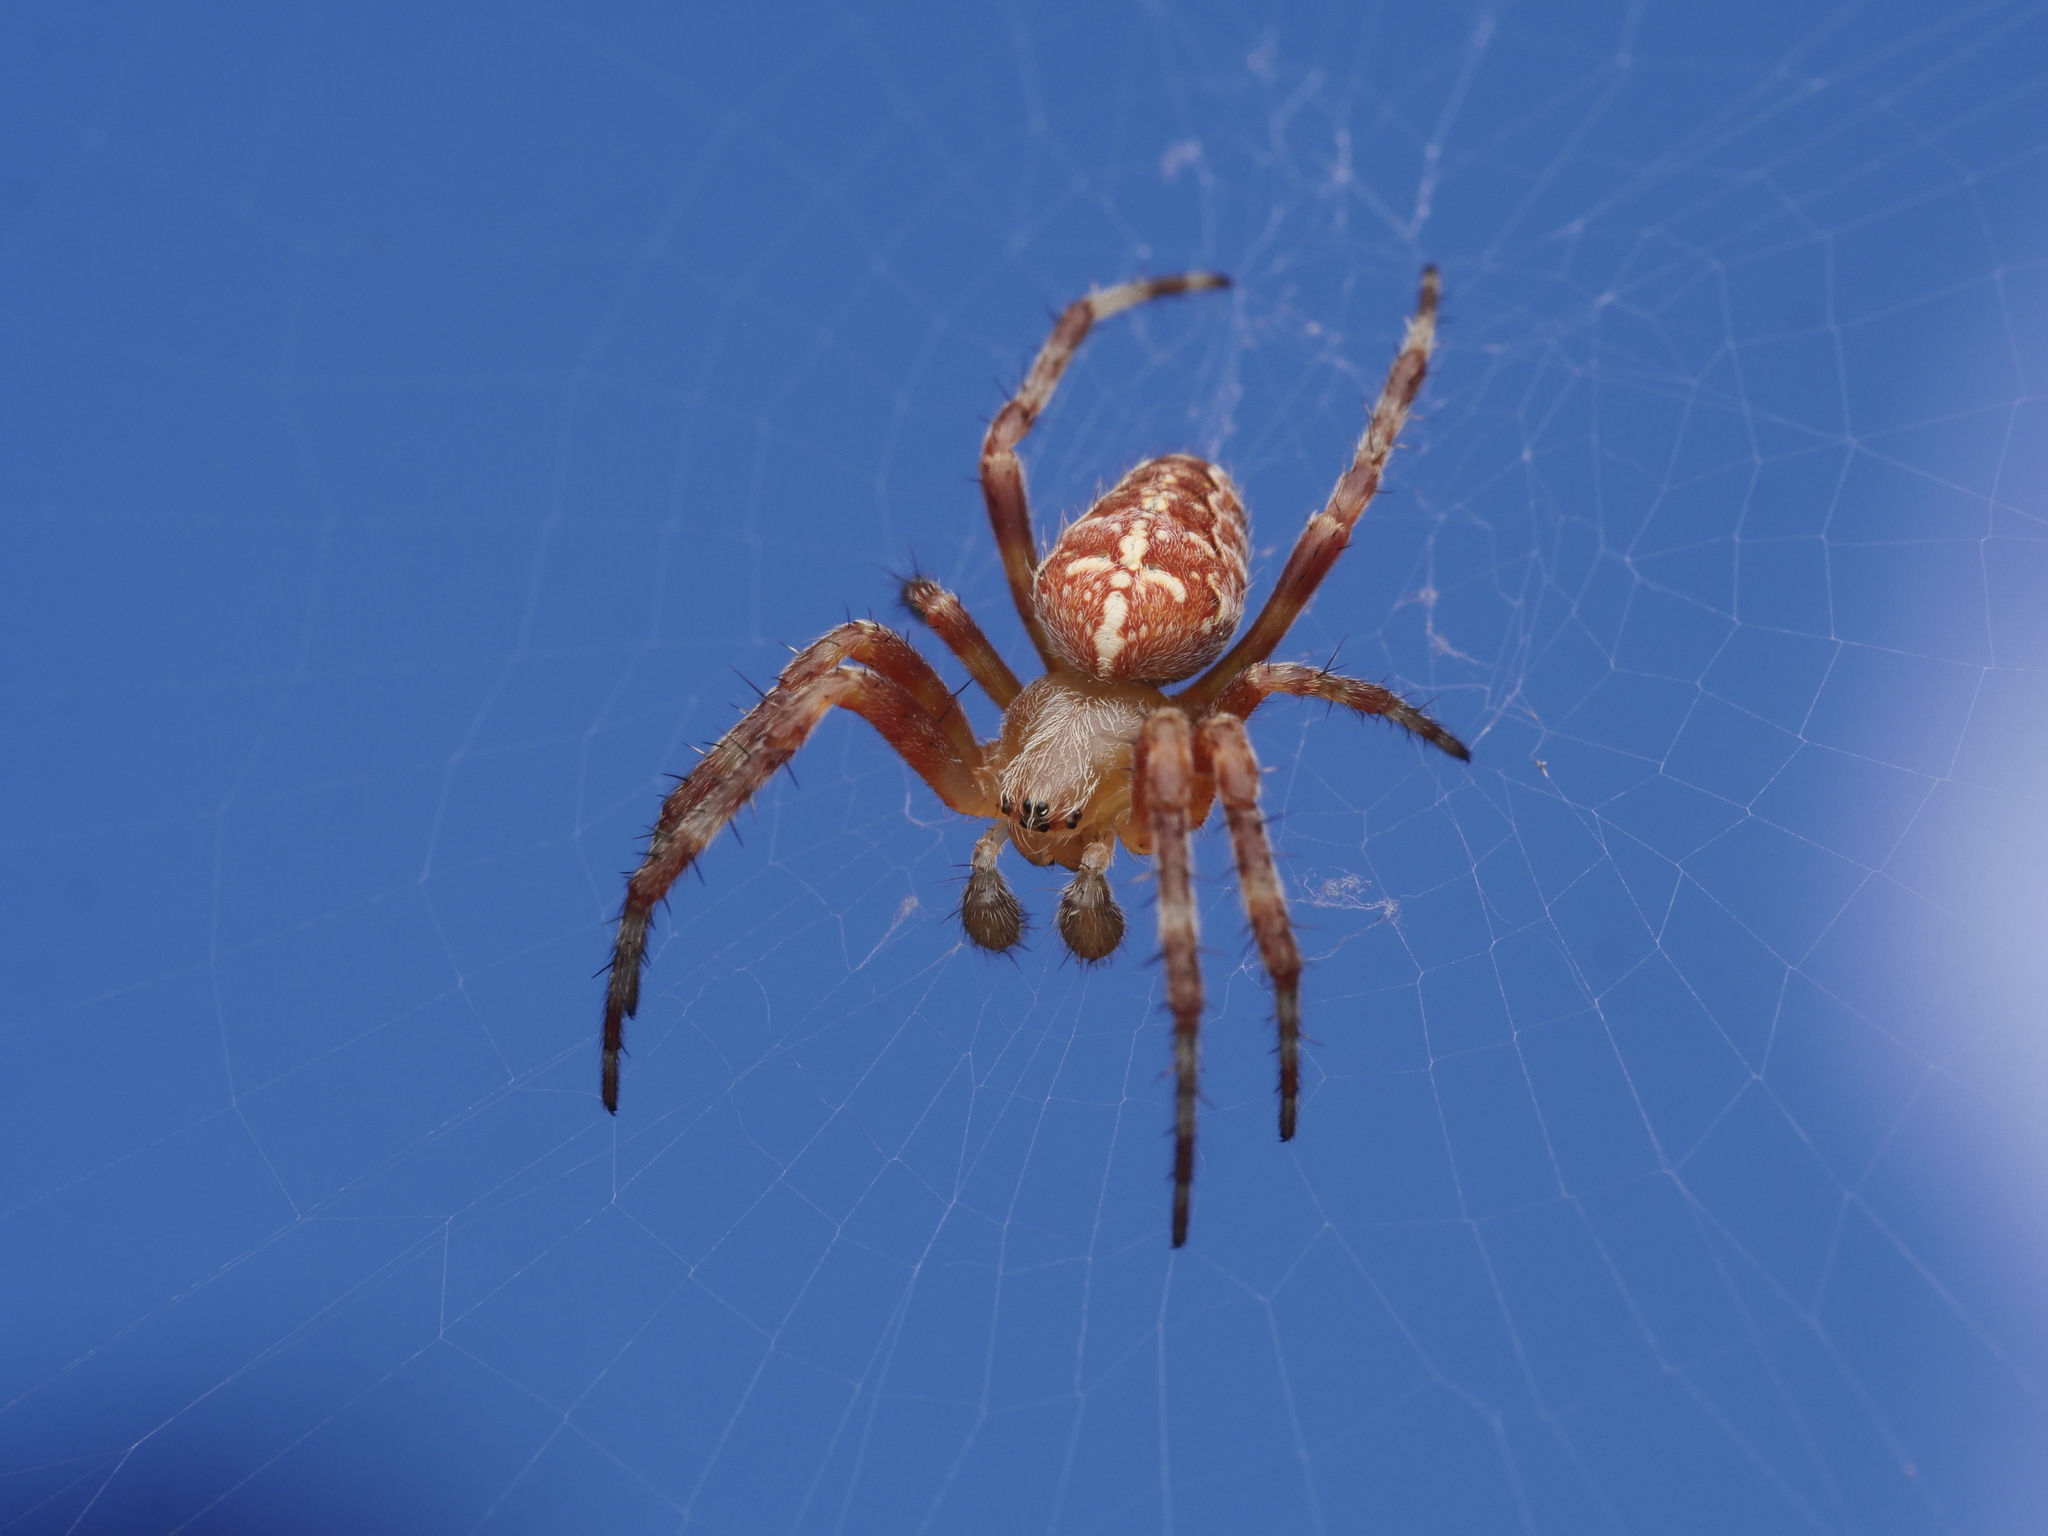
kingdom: Animalia
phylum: Arthropoda
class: Arachnida
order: Araneae
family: Araneidae
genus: Araneus
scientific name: Araneus diadematus
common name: Cross orbweaver
